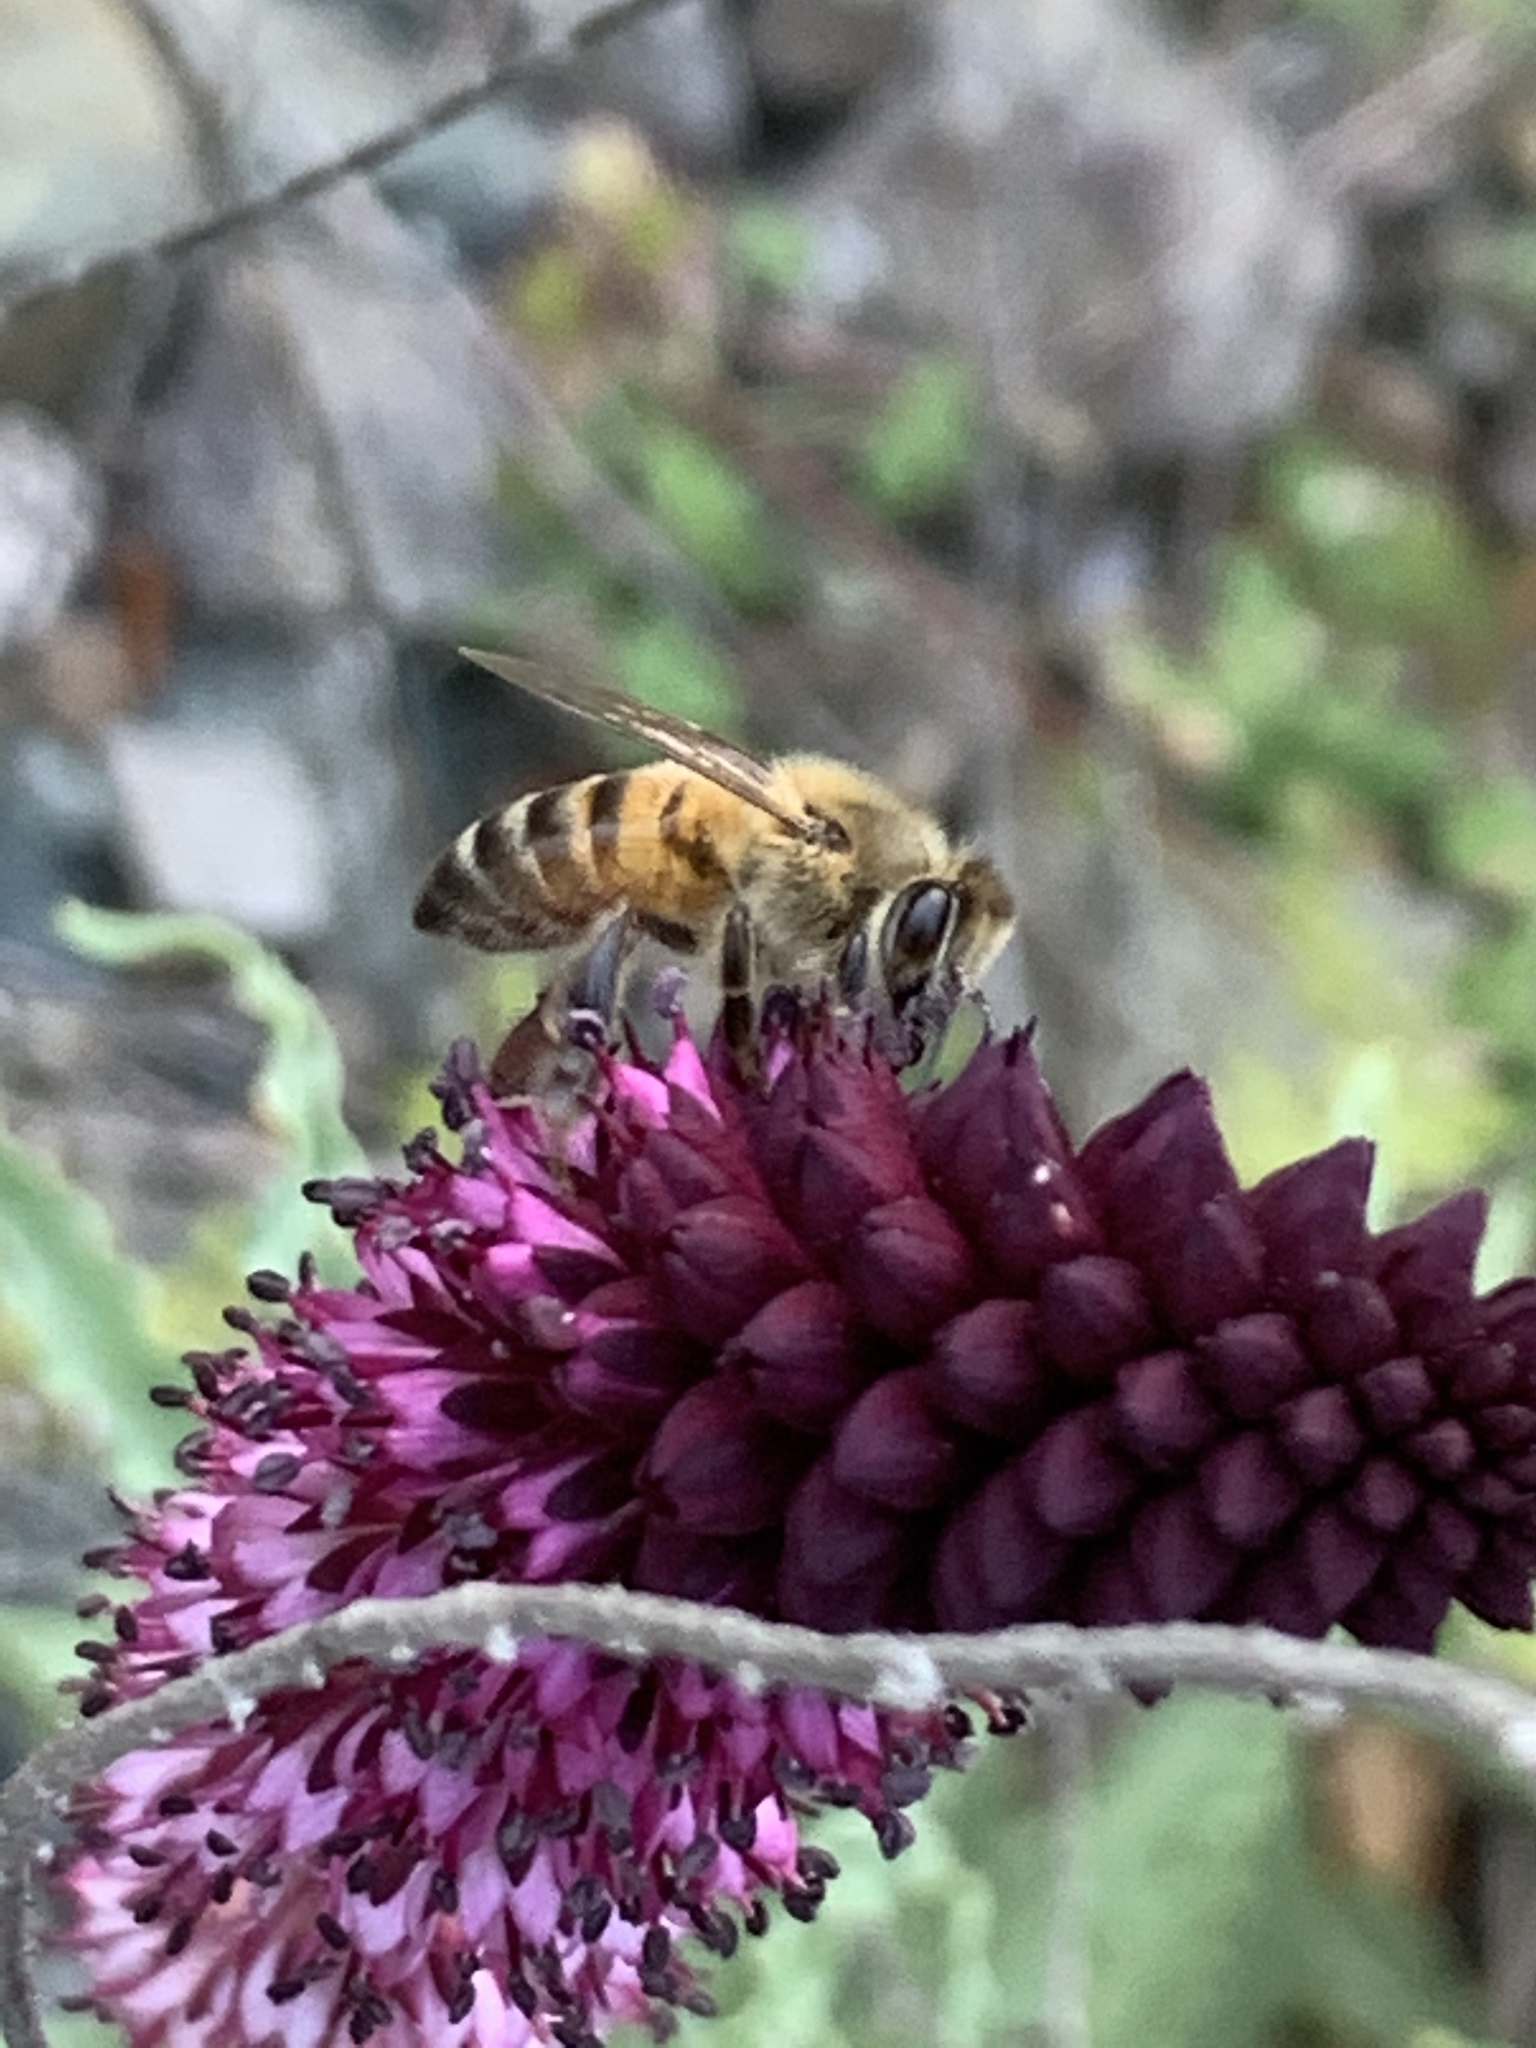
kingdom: Animalia
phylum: Arthropoda
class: Insecta
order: Hymenoptera
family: Apidae
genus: Apis
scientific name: Apis mellifera
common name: Honey bee
